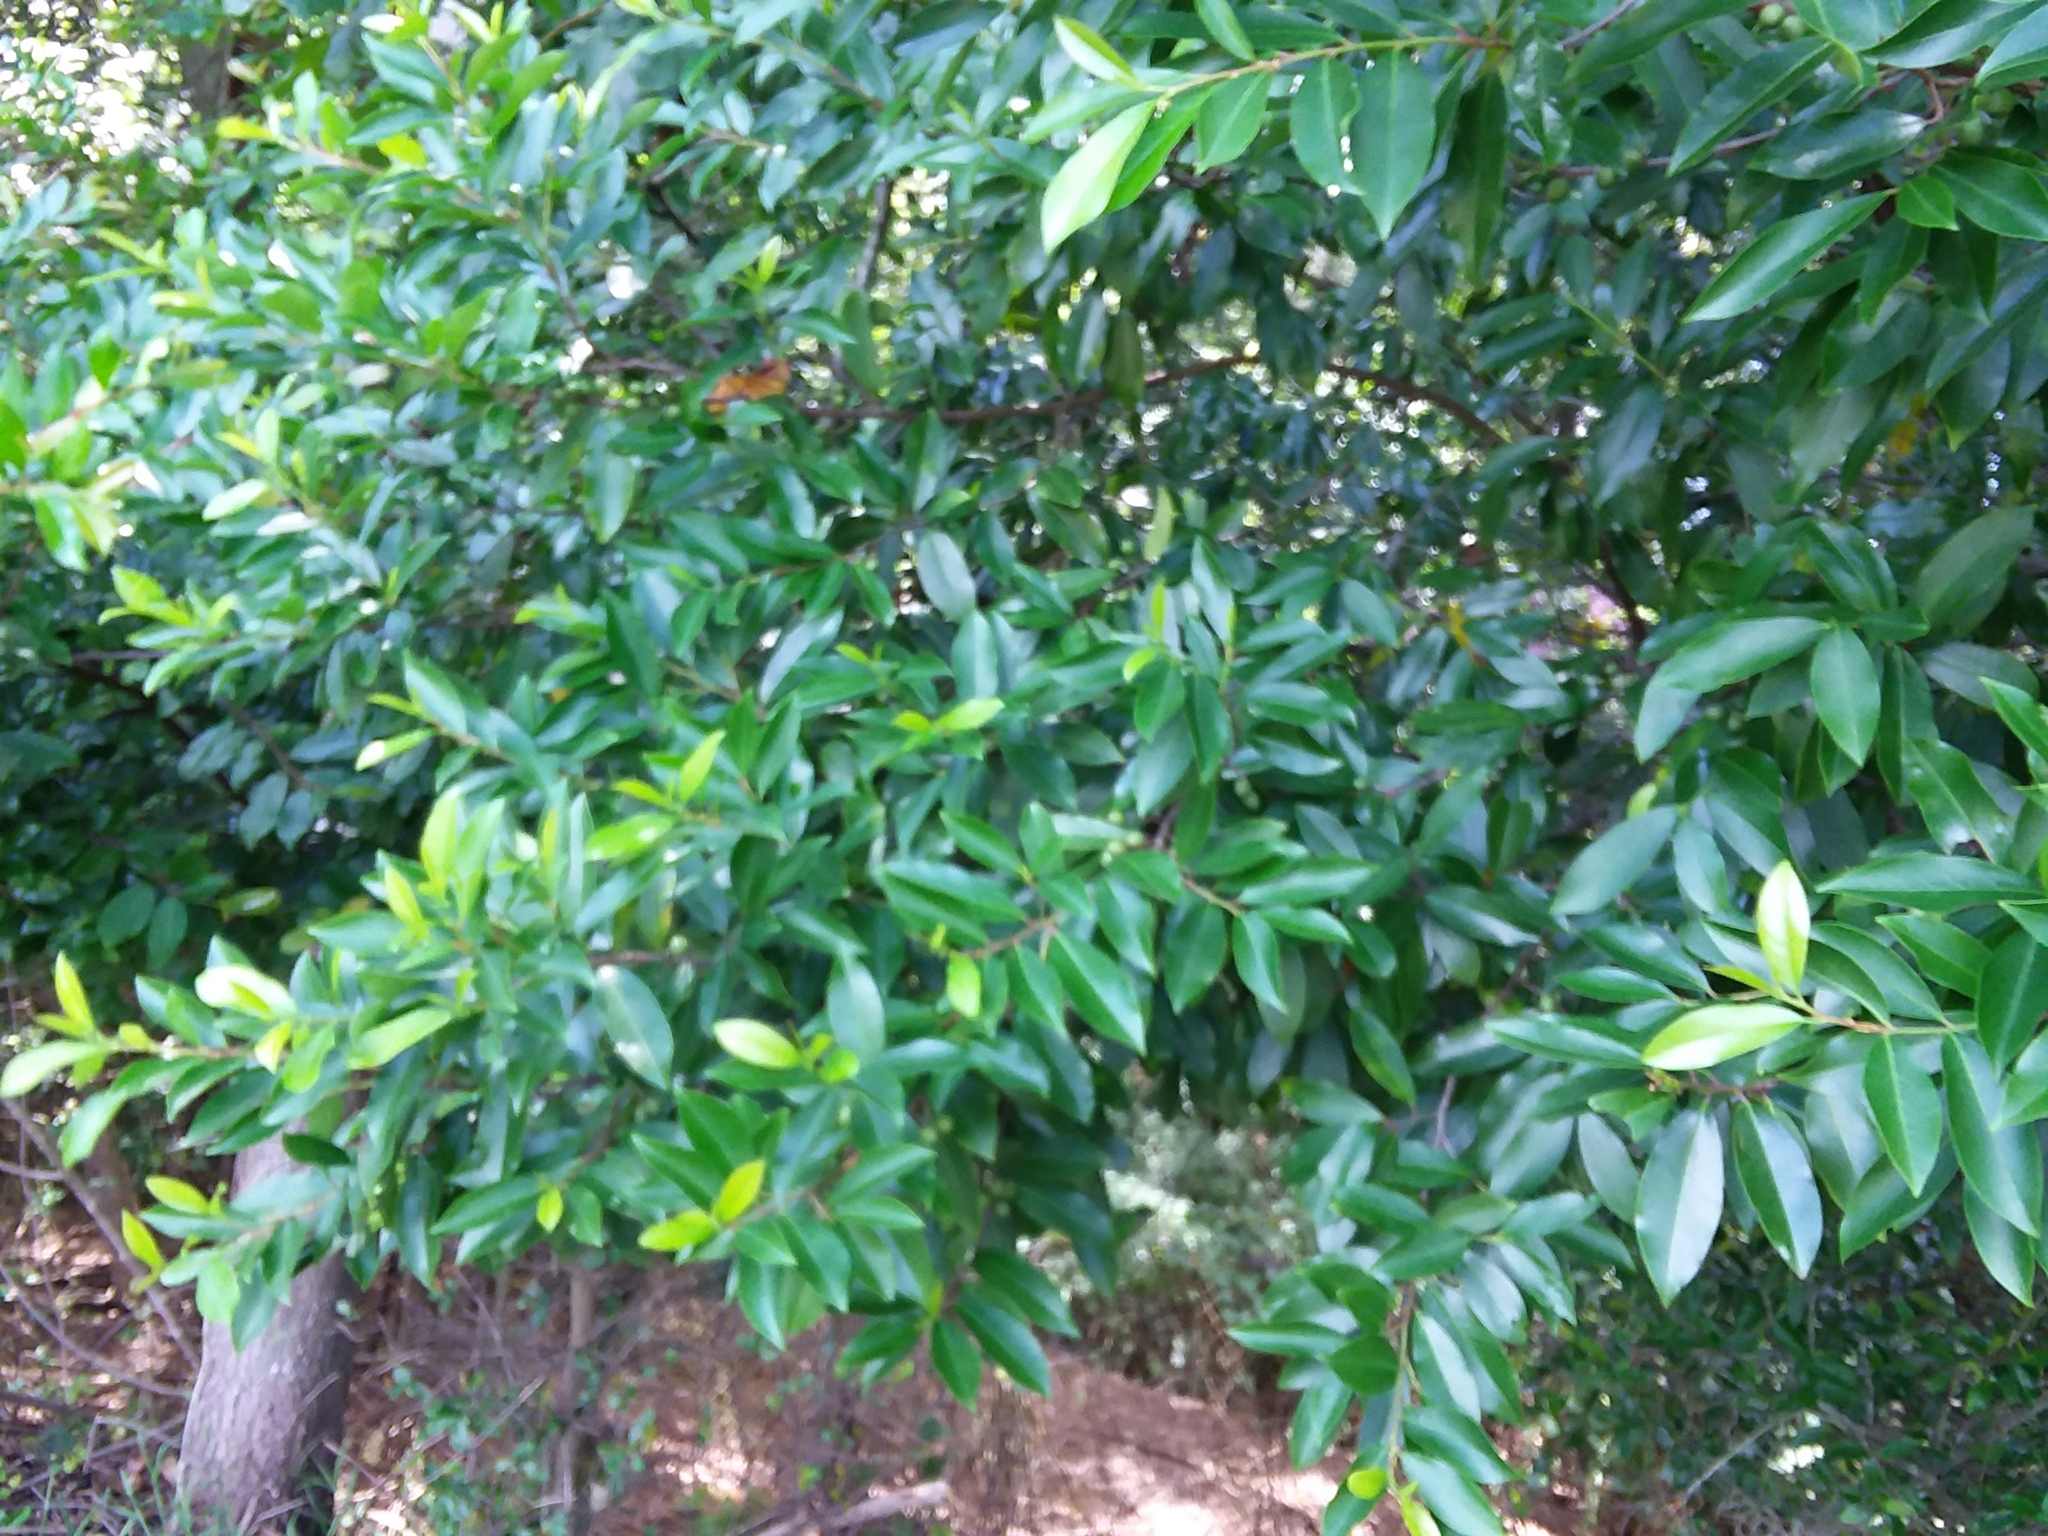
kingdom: Plantae
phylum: Tracheophyta
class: Magnoliopsida
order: Rosales
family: Rosaceae
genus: Prunus
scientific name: Prunus caroliniana
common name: Carolina laurel cherry
